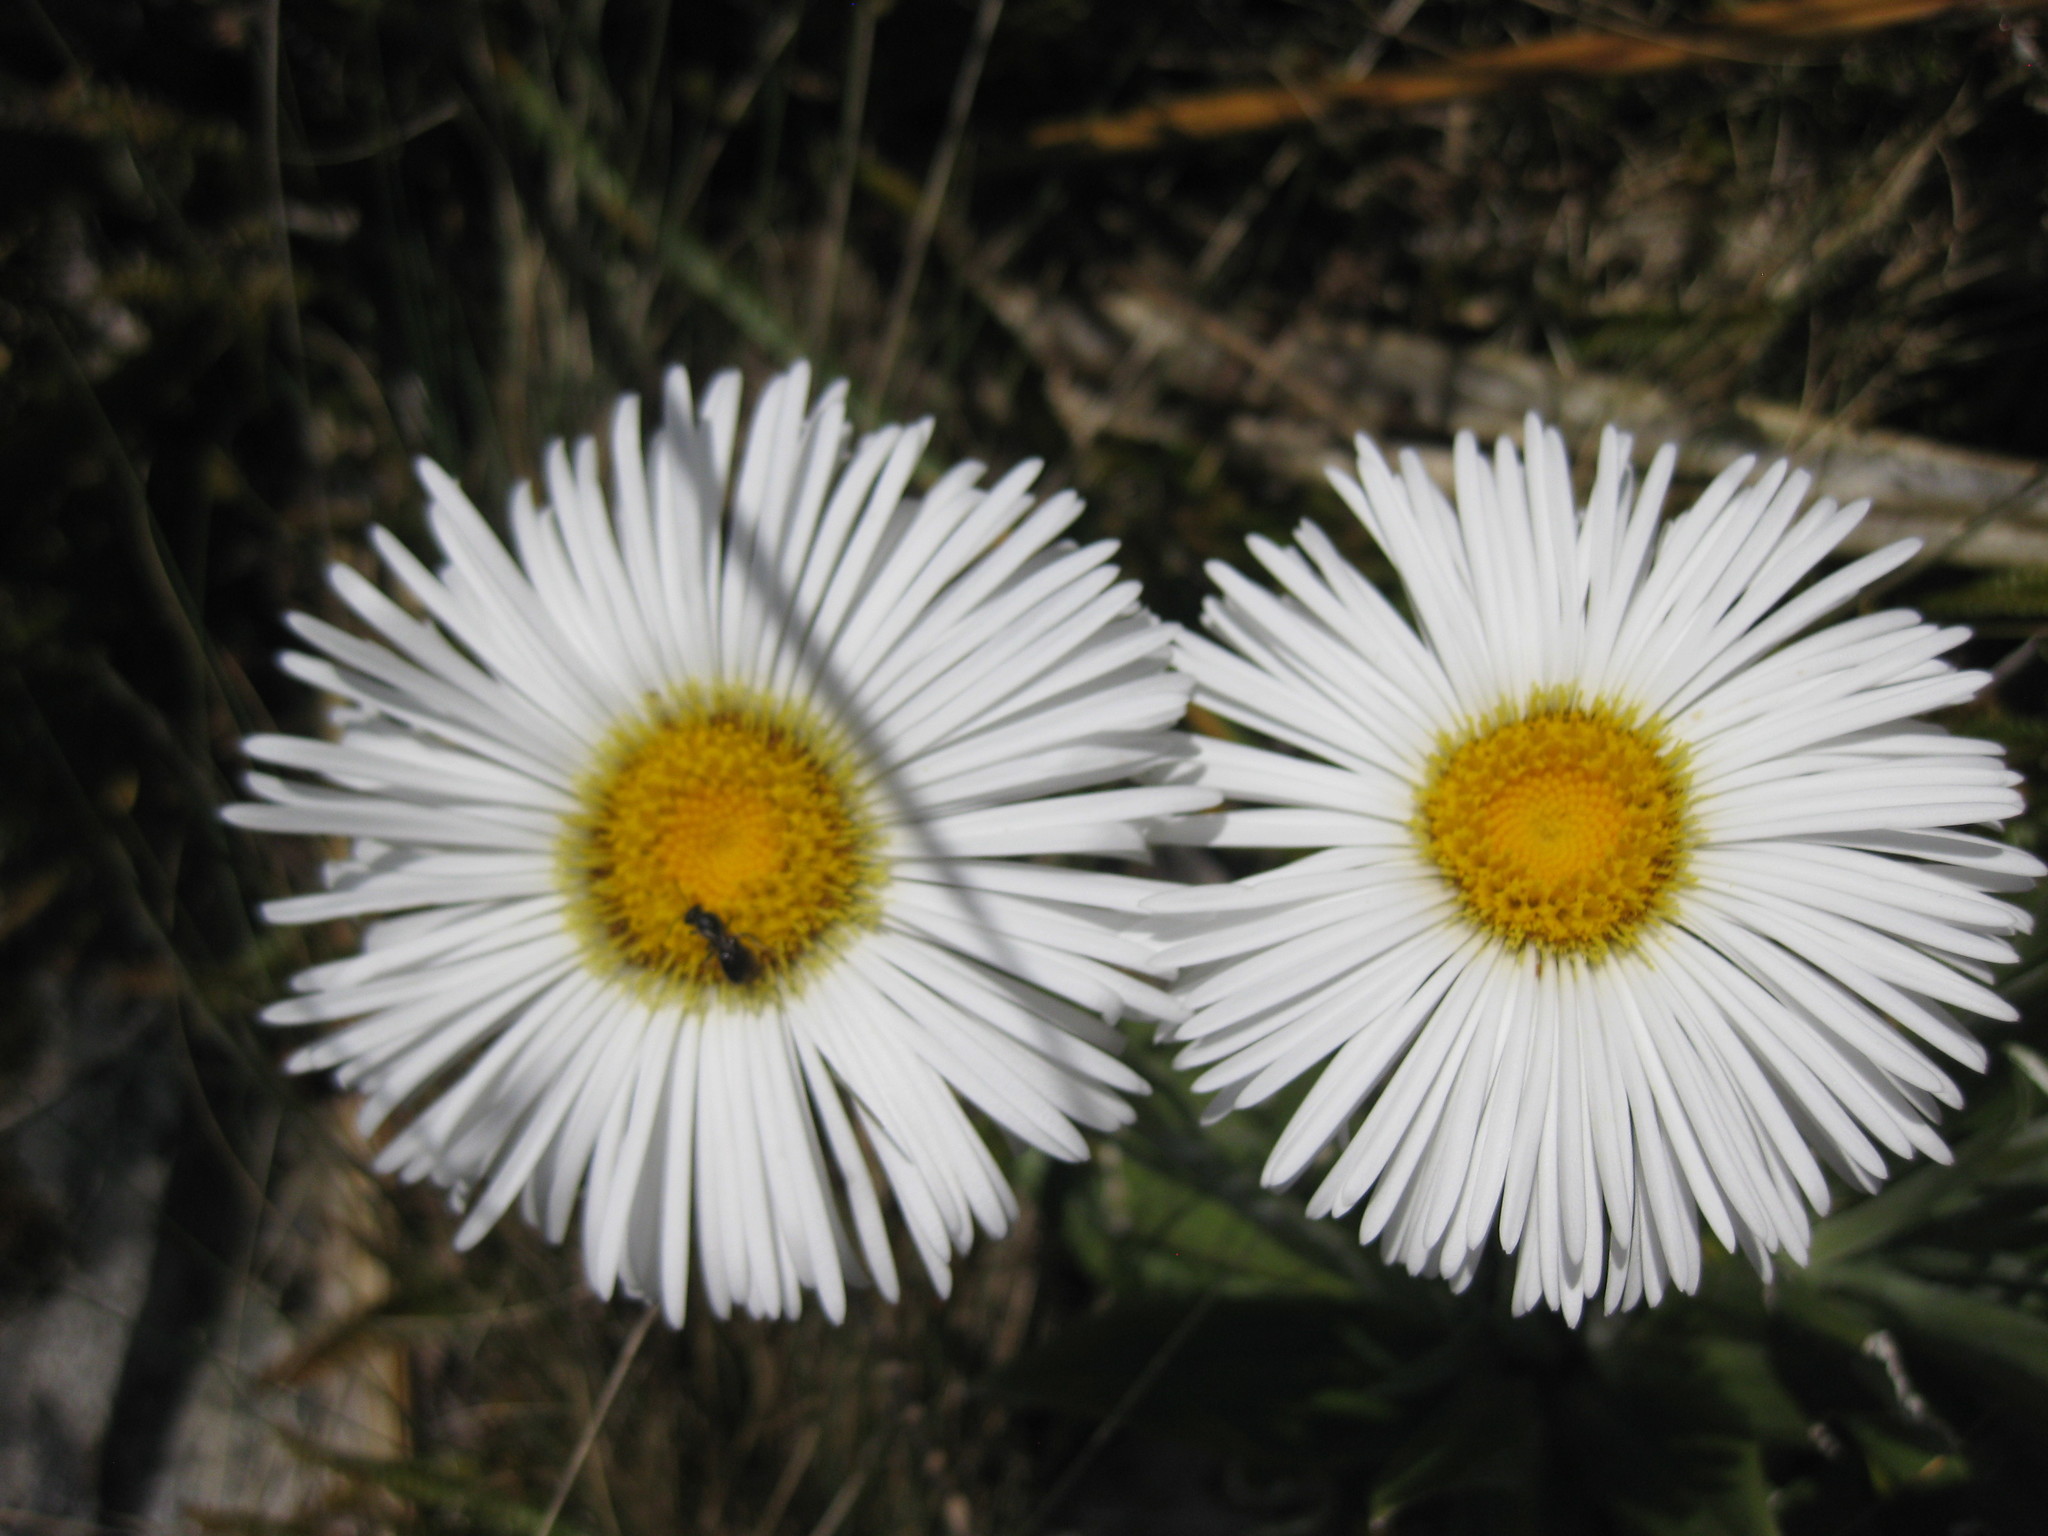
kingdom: Plantae
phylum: Tracheophyta
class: Magnoliopsida
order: Asterales
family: Asteraceae
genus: Celmisia
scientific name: Celmisia semicordata
